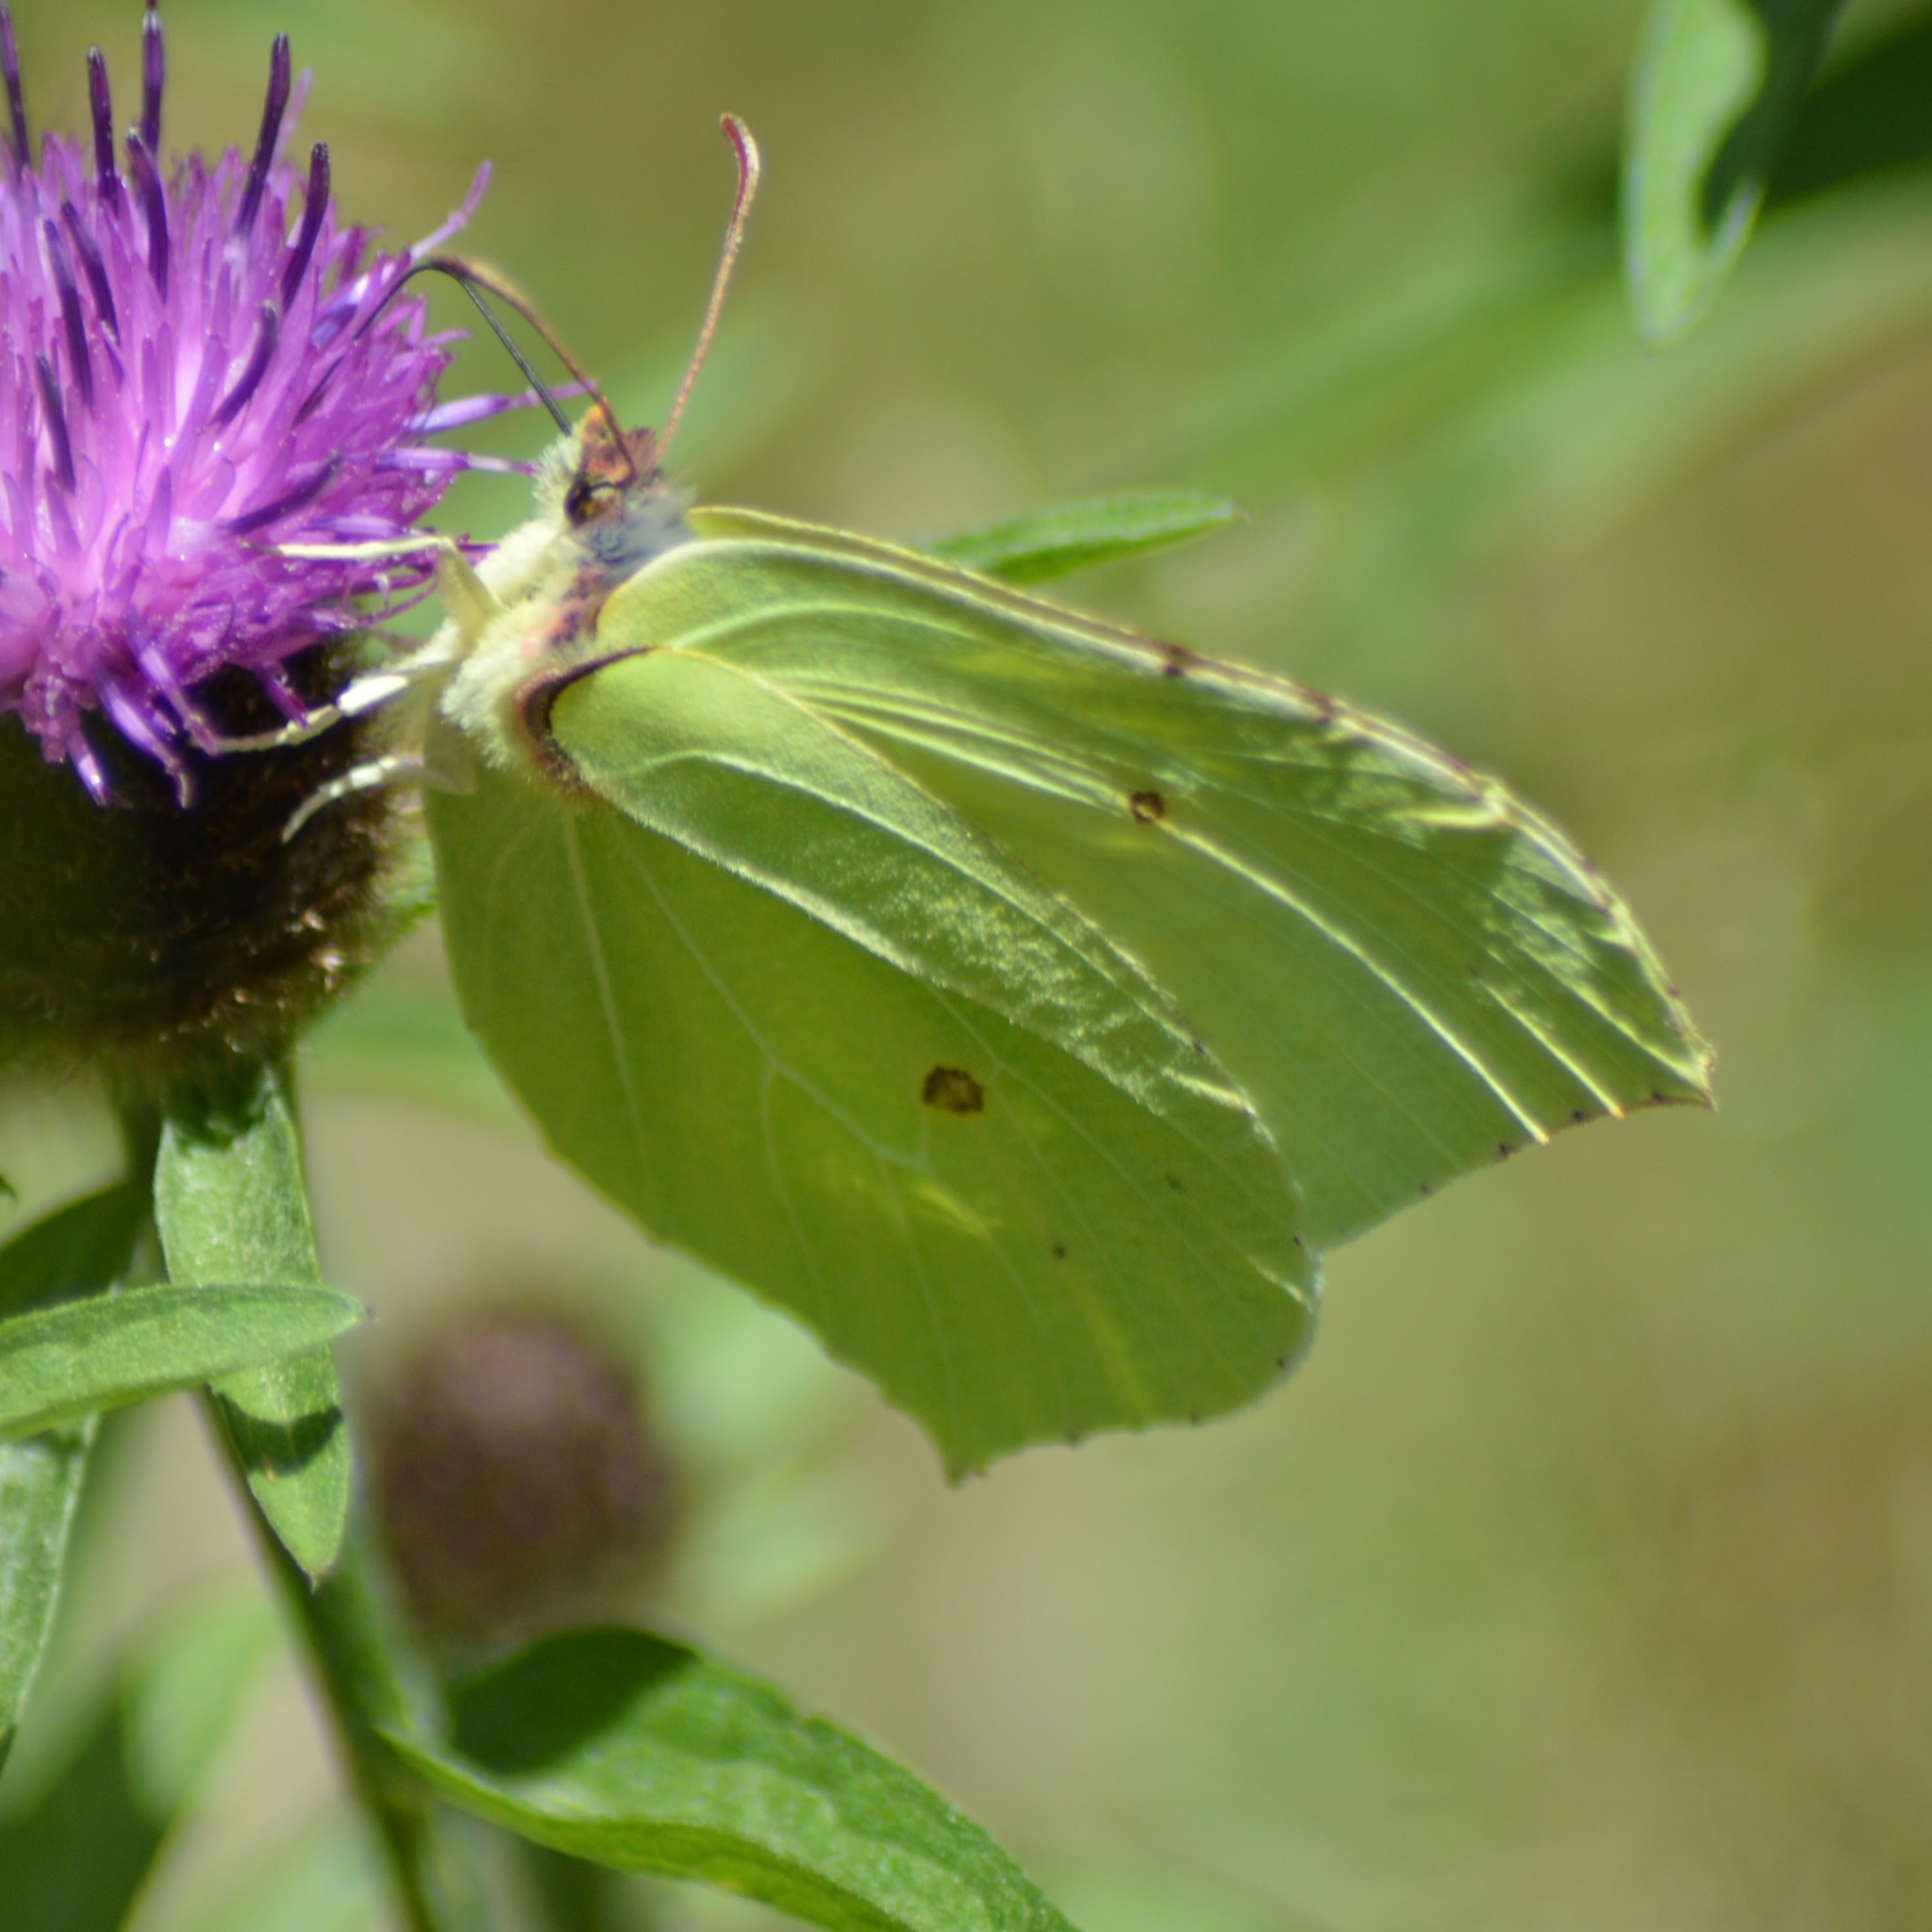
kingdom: Animalia
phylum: Arthropoda
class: Insecta
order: Lepidoptera
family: Pieridae
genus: Gonepteryx
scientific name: Gonepteryx rhamni
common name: Brimstone
